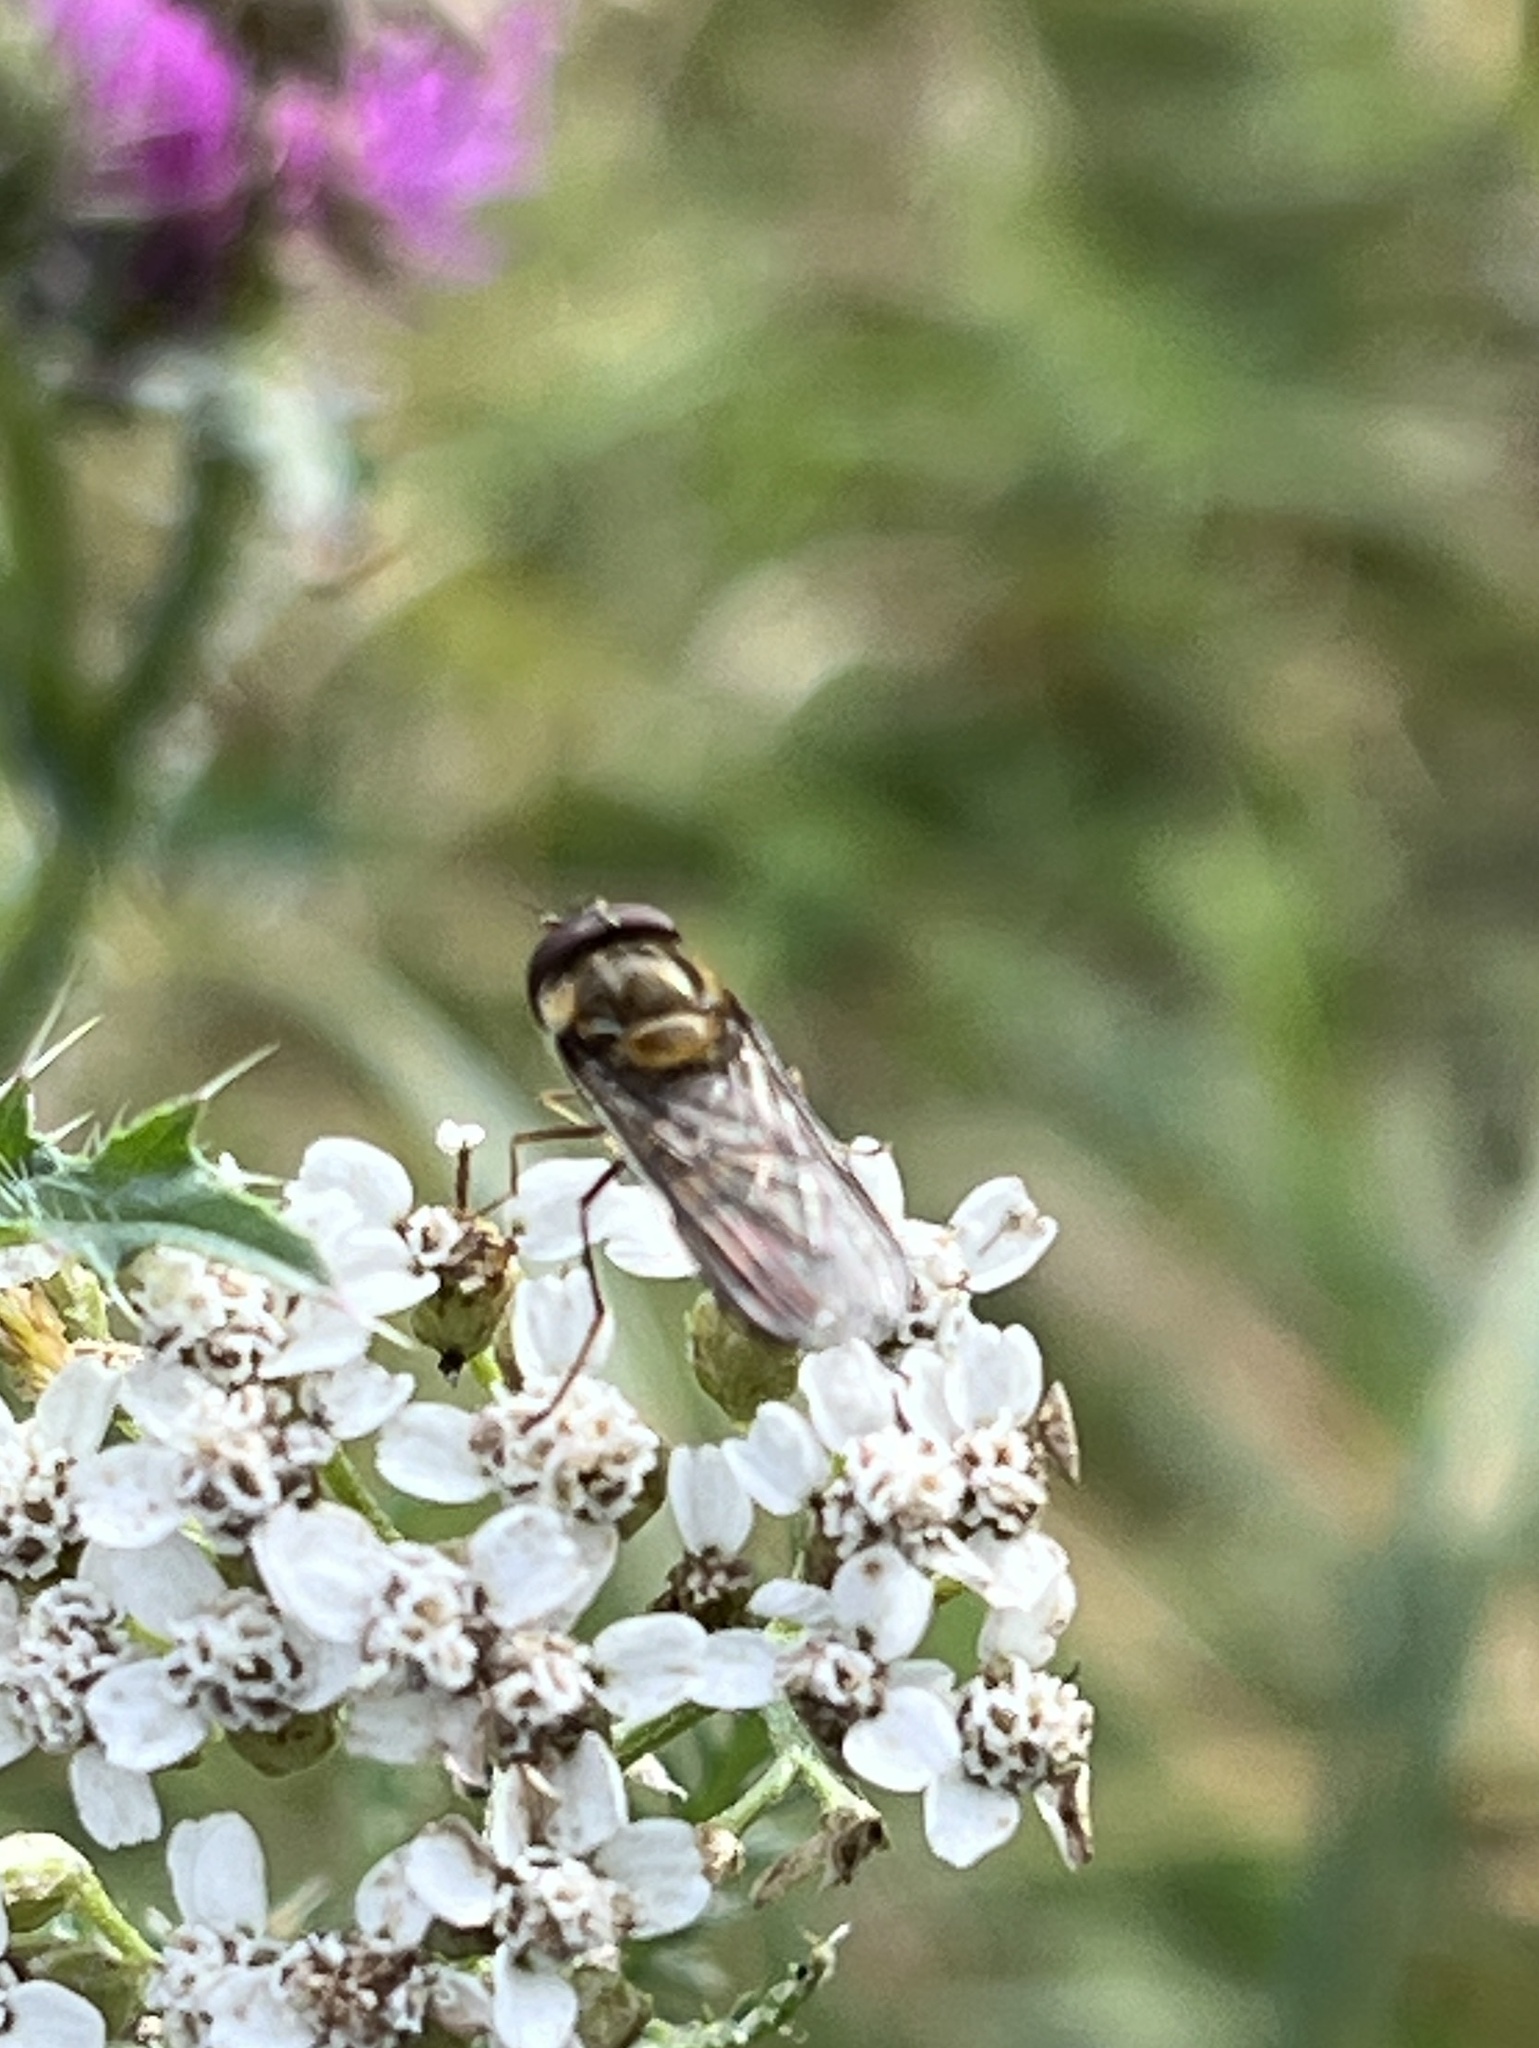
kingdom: Animalia
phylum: Arthropoda
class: Insecta
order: Diptera
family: Syrphidae
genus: Episyrphus
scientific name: Episyrphus balteatus
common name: Marmalade hoverfly
